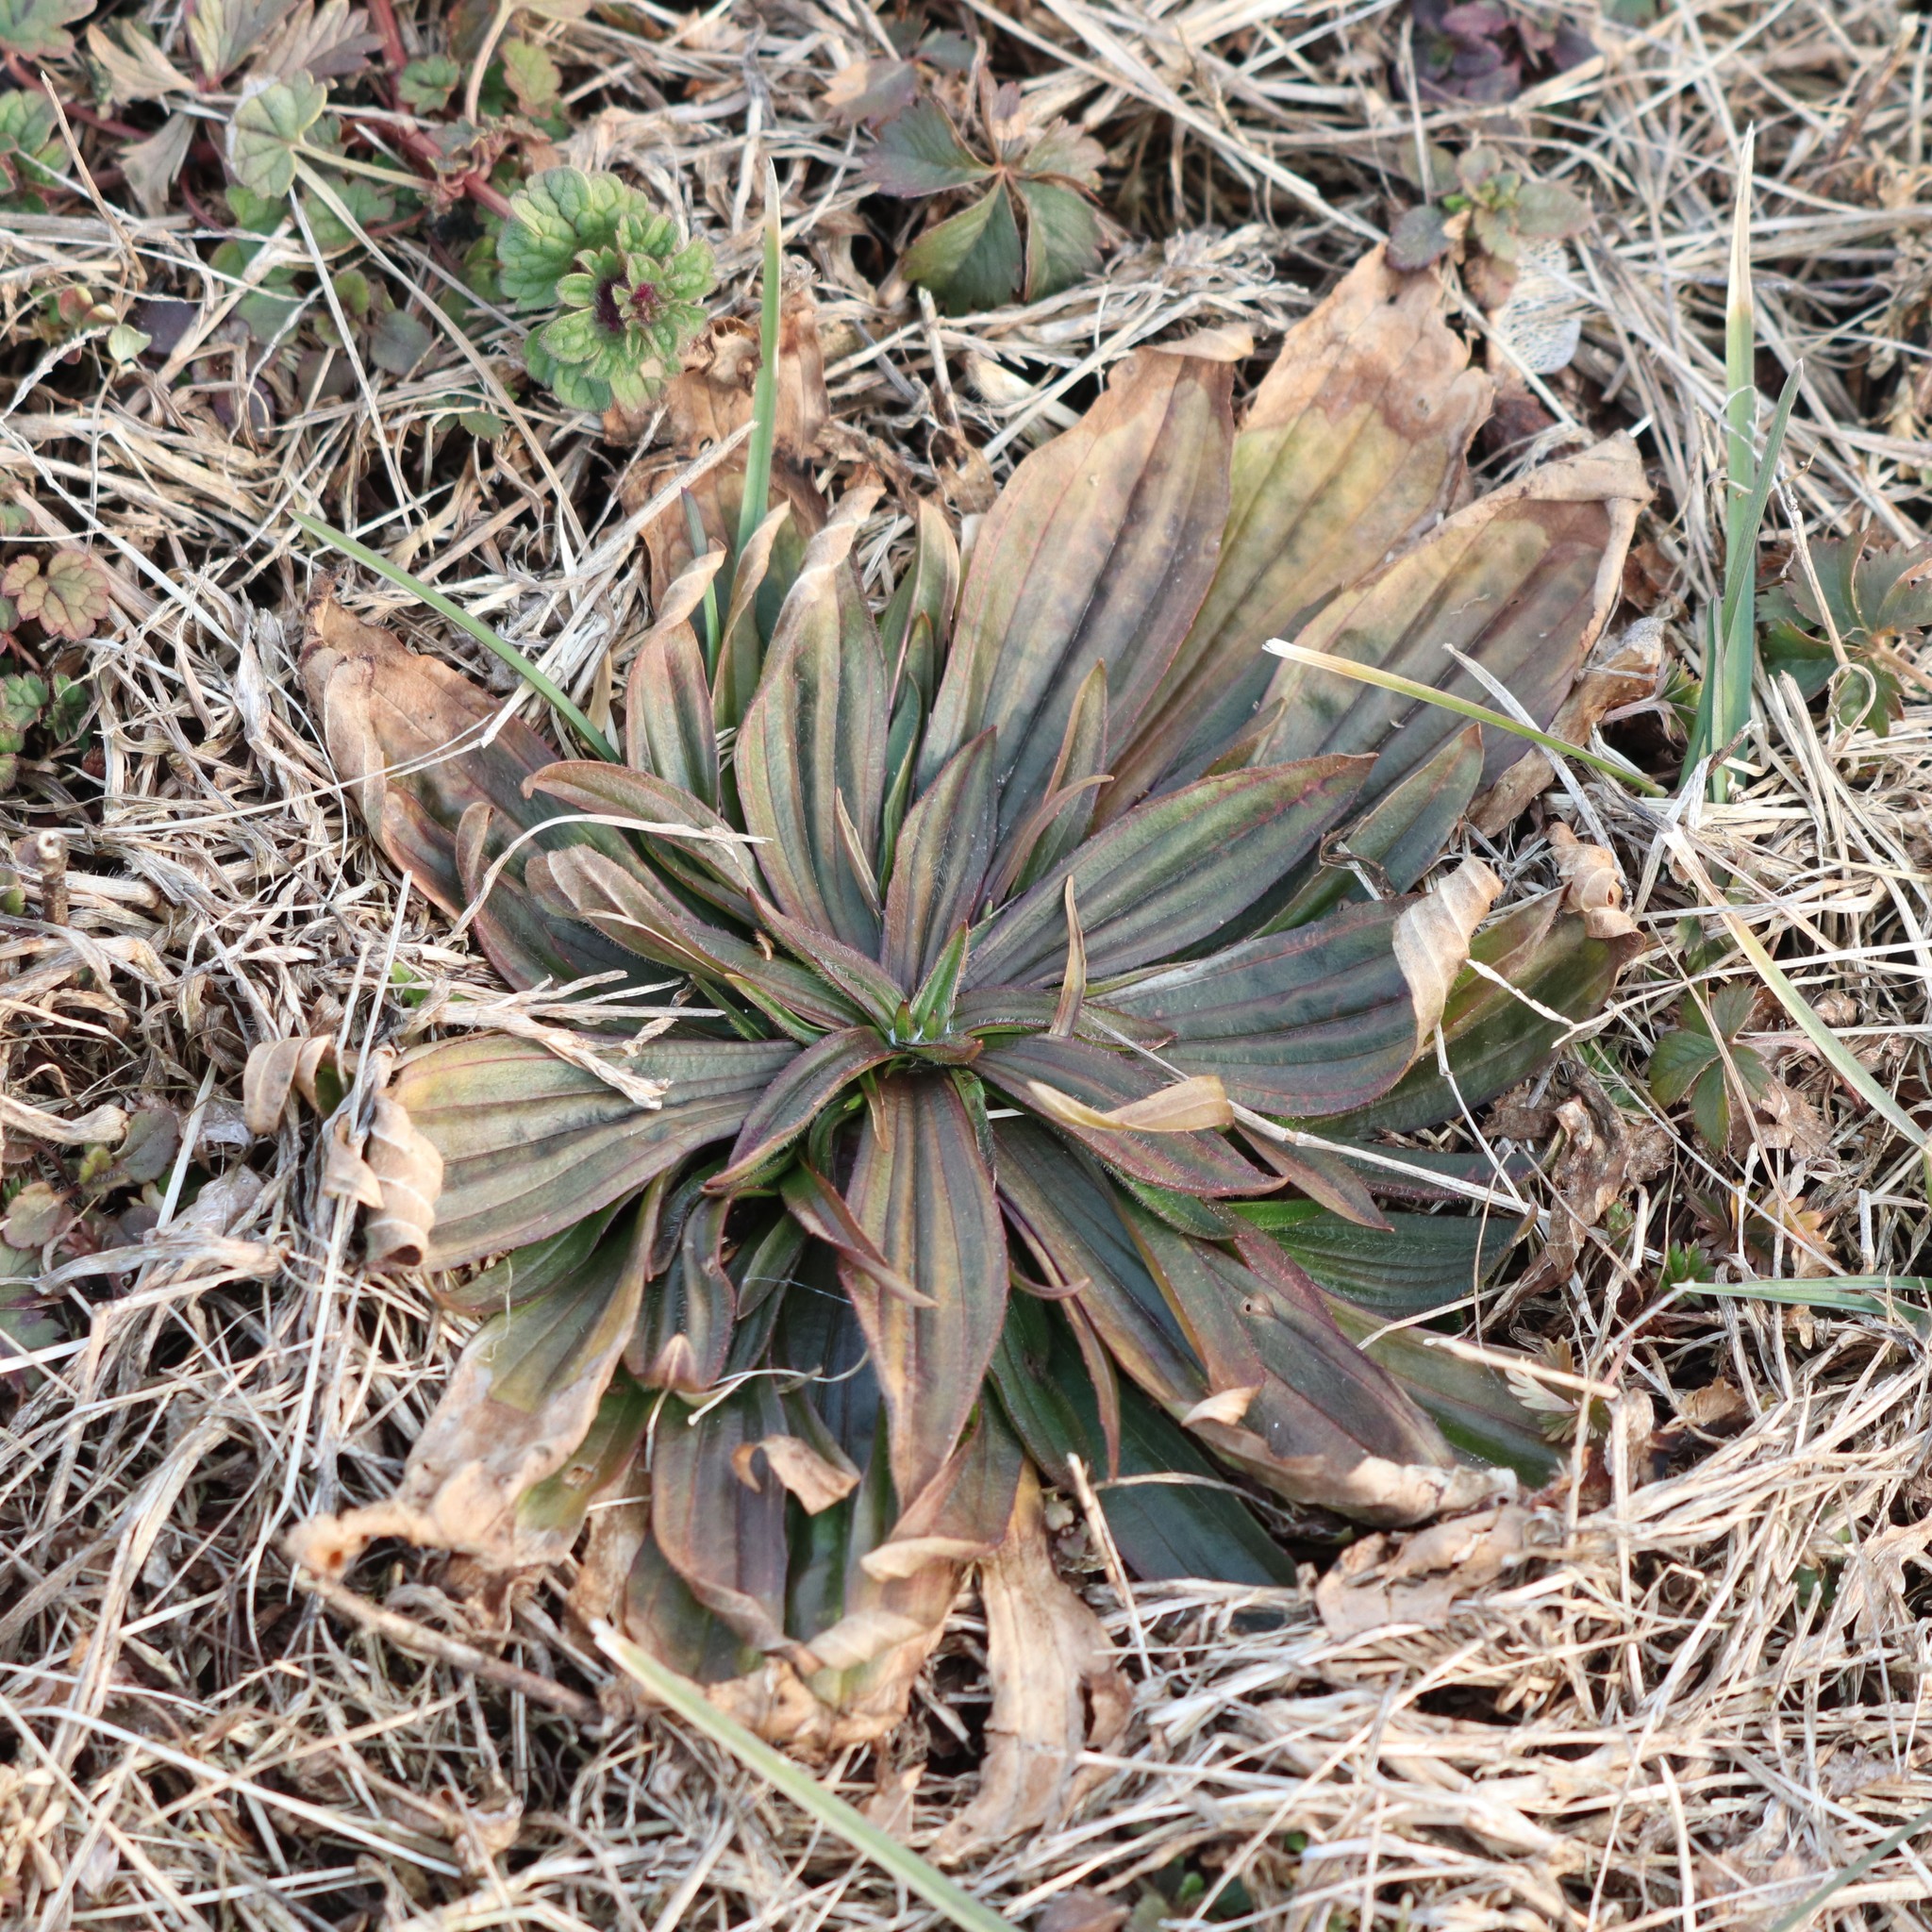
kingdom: Plantae
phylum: Tracheophyta
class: Magnoliopsida
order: Lamiales
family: Plantaginaceae
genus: Plantago
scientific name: Plantago lanceolata
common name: Ribwort plantain
